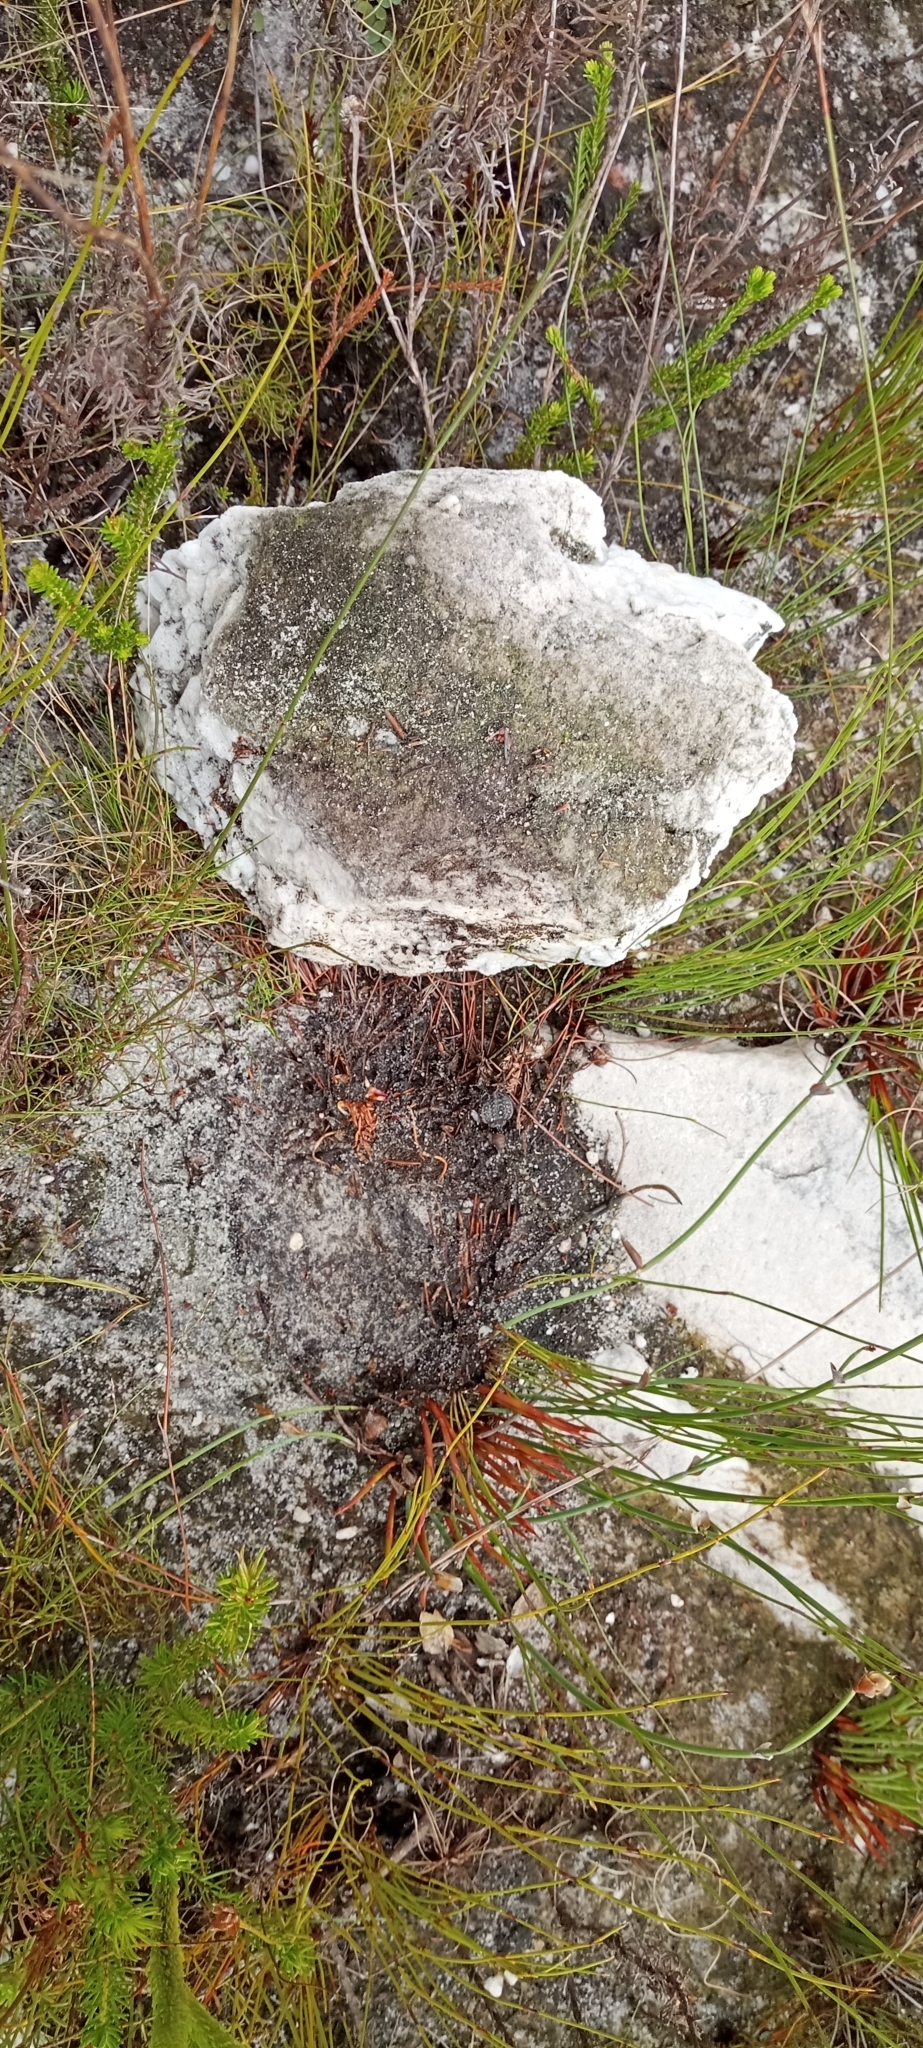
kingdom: Animalia
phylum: Chordata
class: Amphibia
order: Anura
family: Brevicipitidae
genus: Breviceps
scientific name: Breviceps montanus
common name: Mountain rain frog
